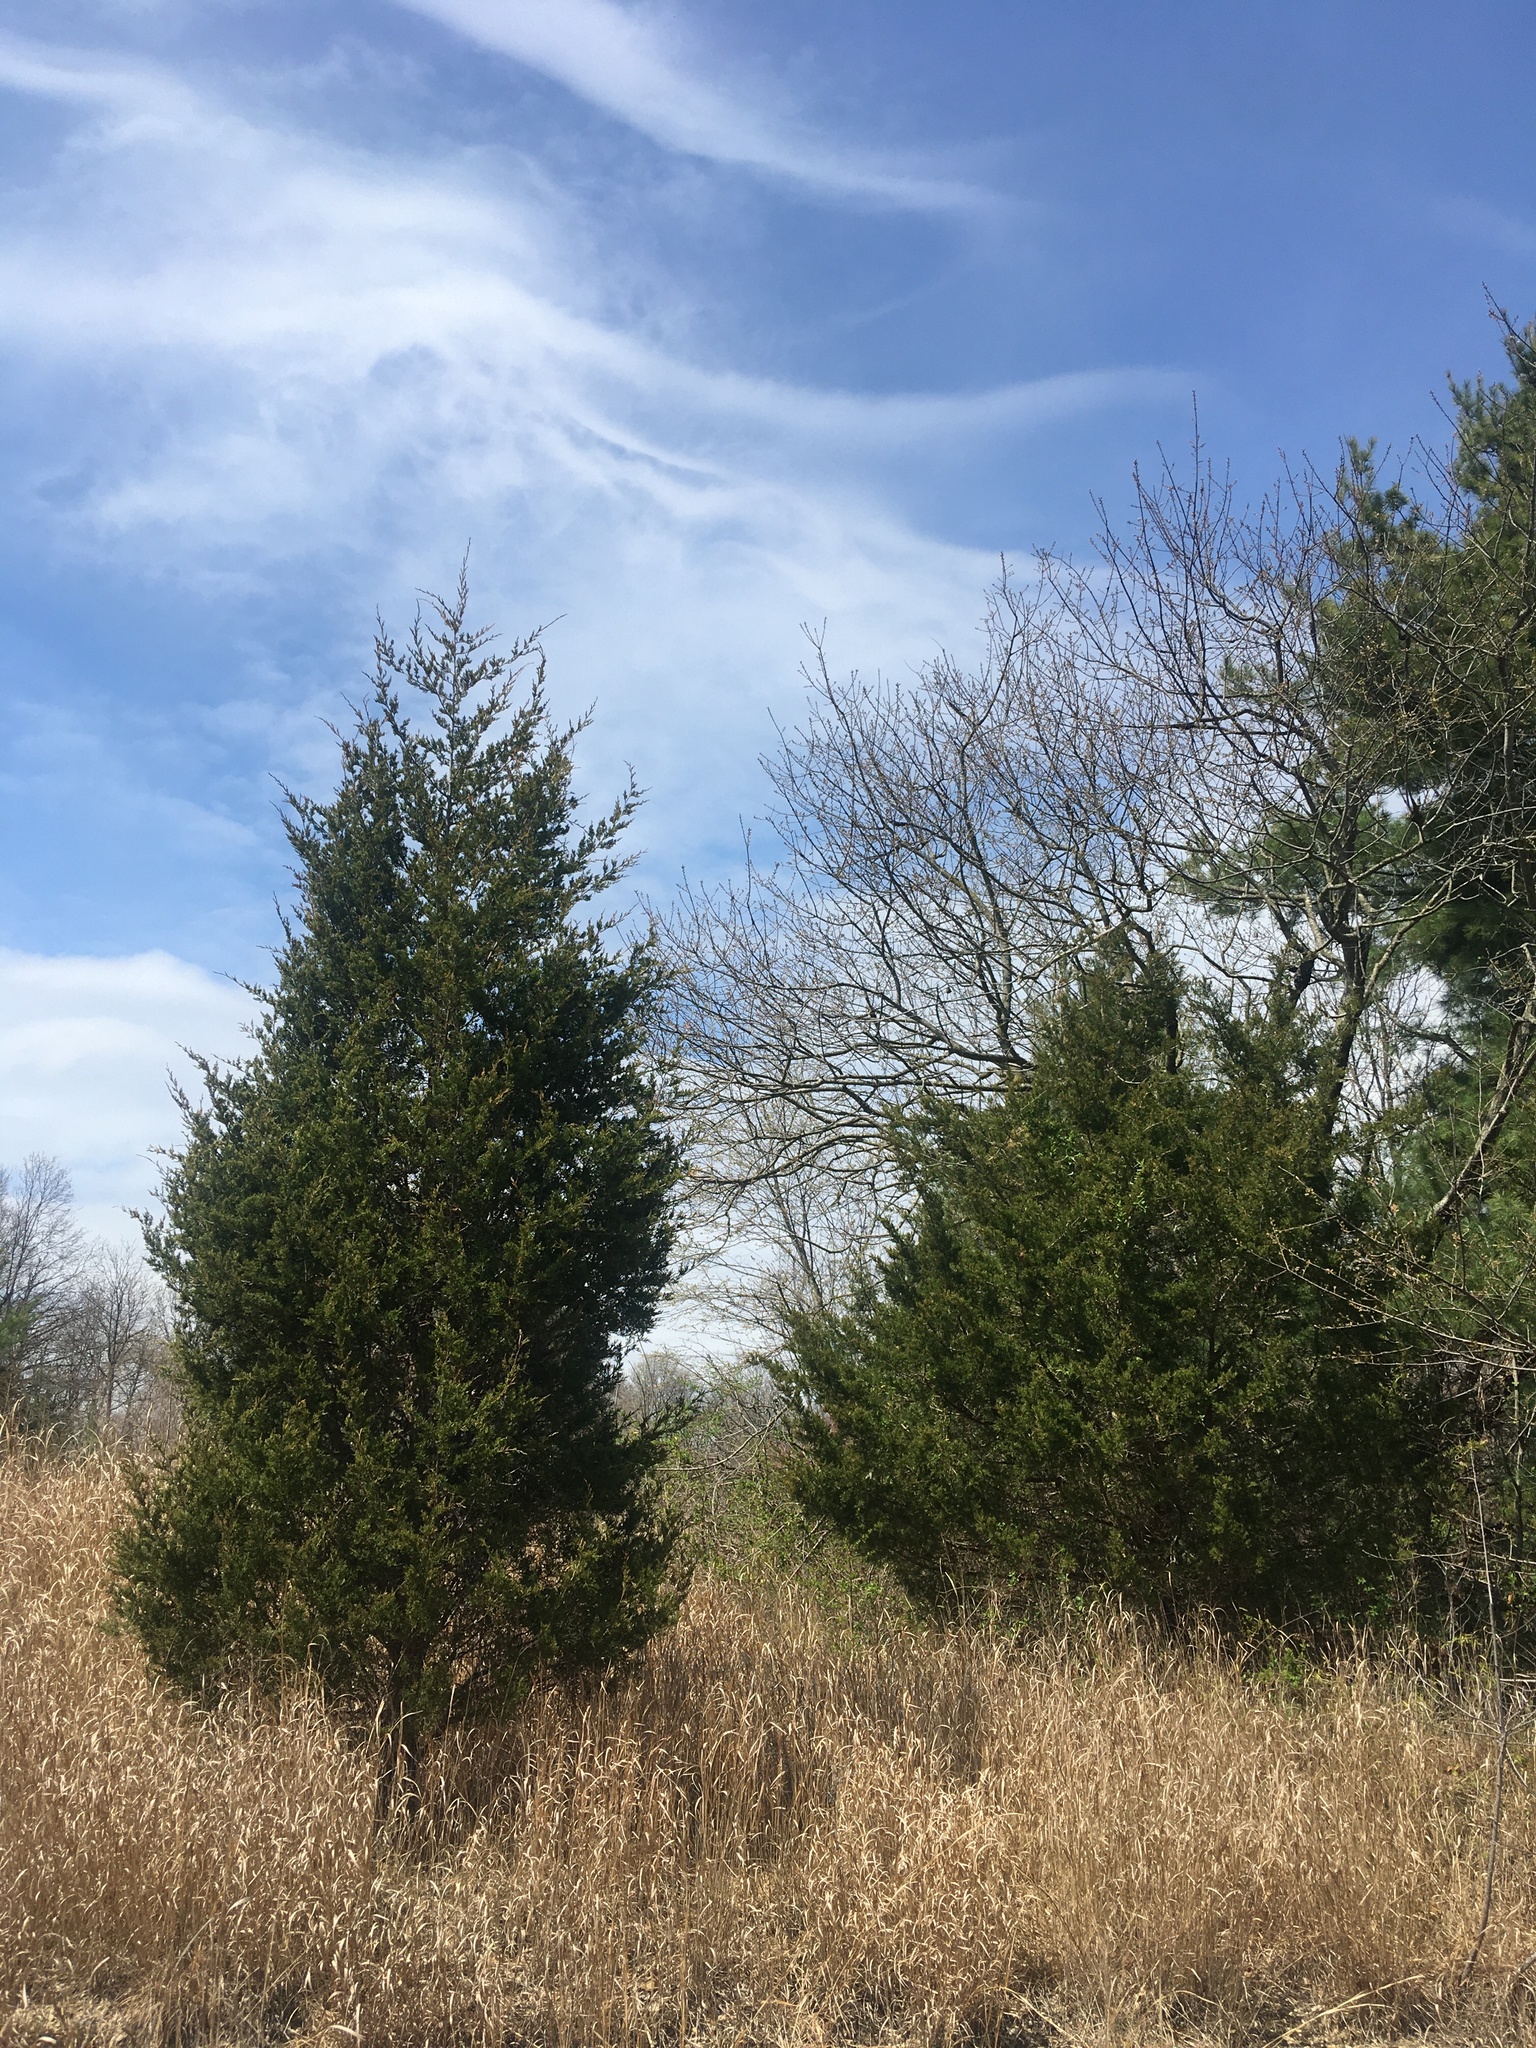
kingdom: Plantae
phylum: Tracheophyta
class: Pinopsida
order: Pinales
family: Cupressaceae
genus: Juniperus
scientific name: Juniperus virginiana
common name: Red juniper
